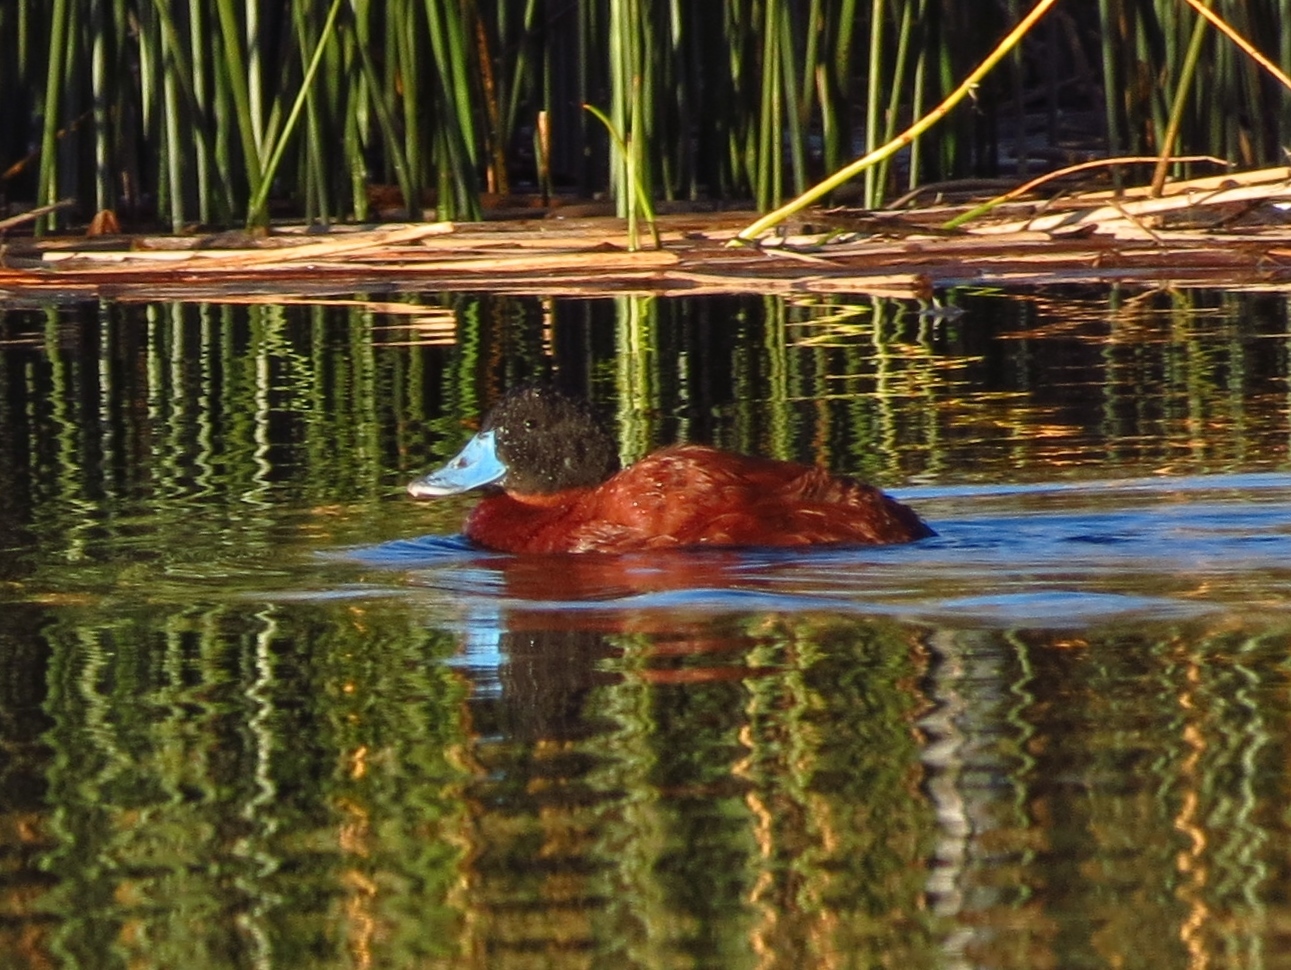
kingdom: Animalia
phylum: Chordata
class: Aves
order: Anseriformes
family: Anatidae
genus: Oxyura
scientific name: Oxyura ferruginea
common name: Andean duck
